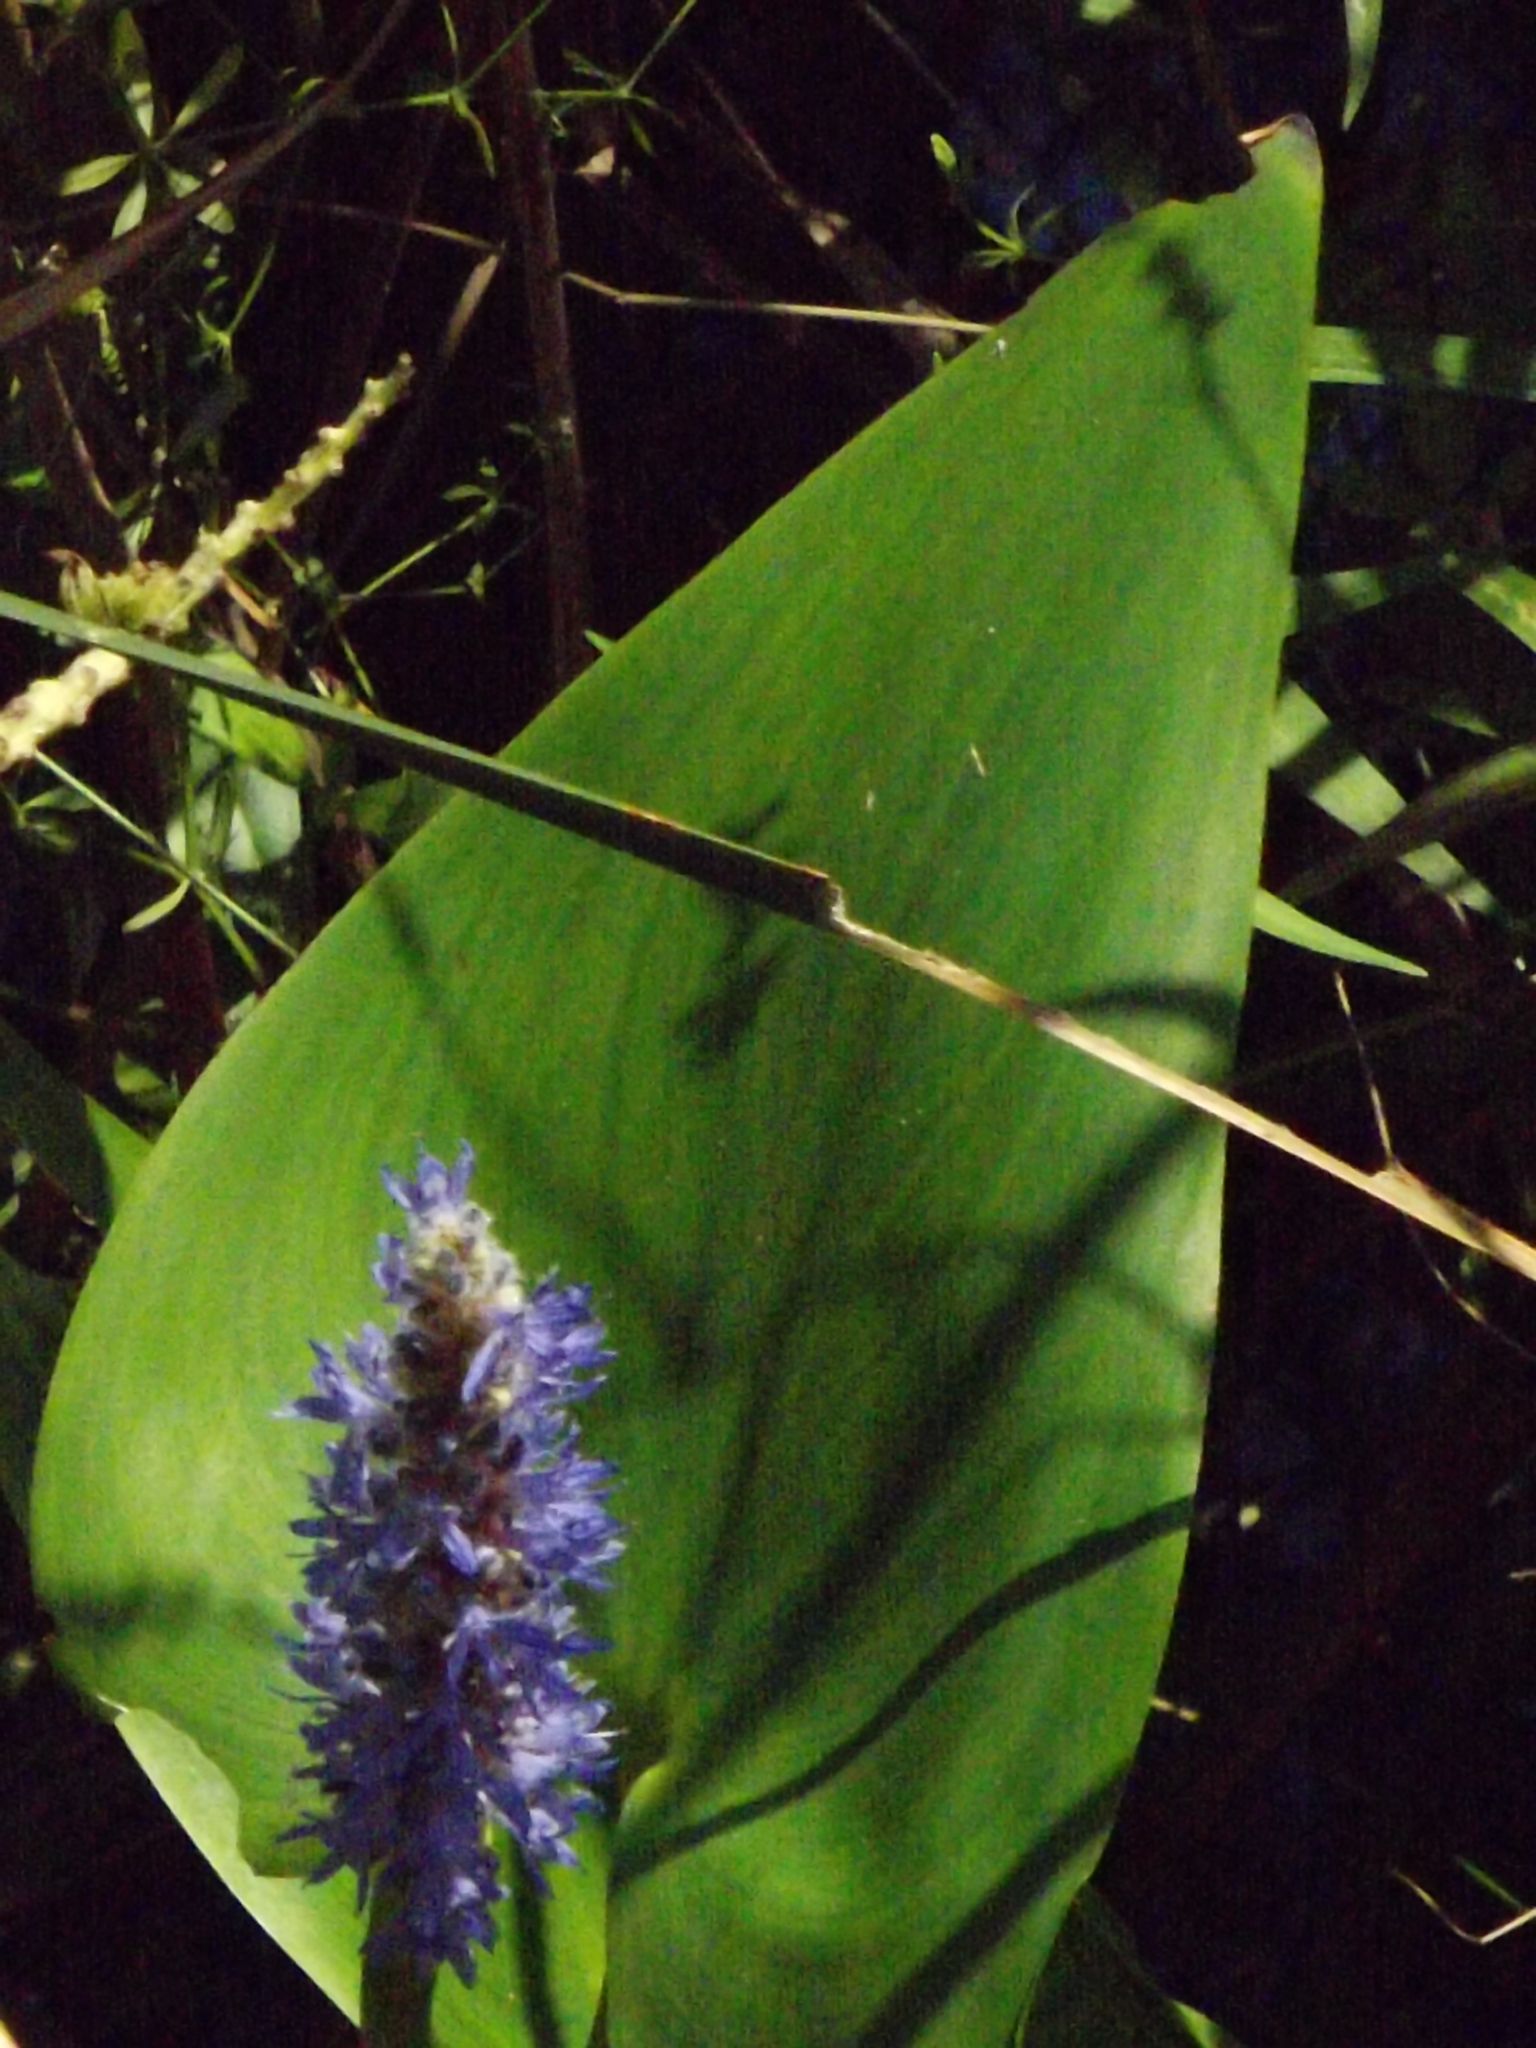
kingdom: Plantae
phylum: Tracheophyta
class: Liliopsida
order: Commelinales
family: Pontederiaceae
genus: Pontederia
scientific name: Pontederia cordata
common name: Pickerelweed
